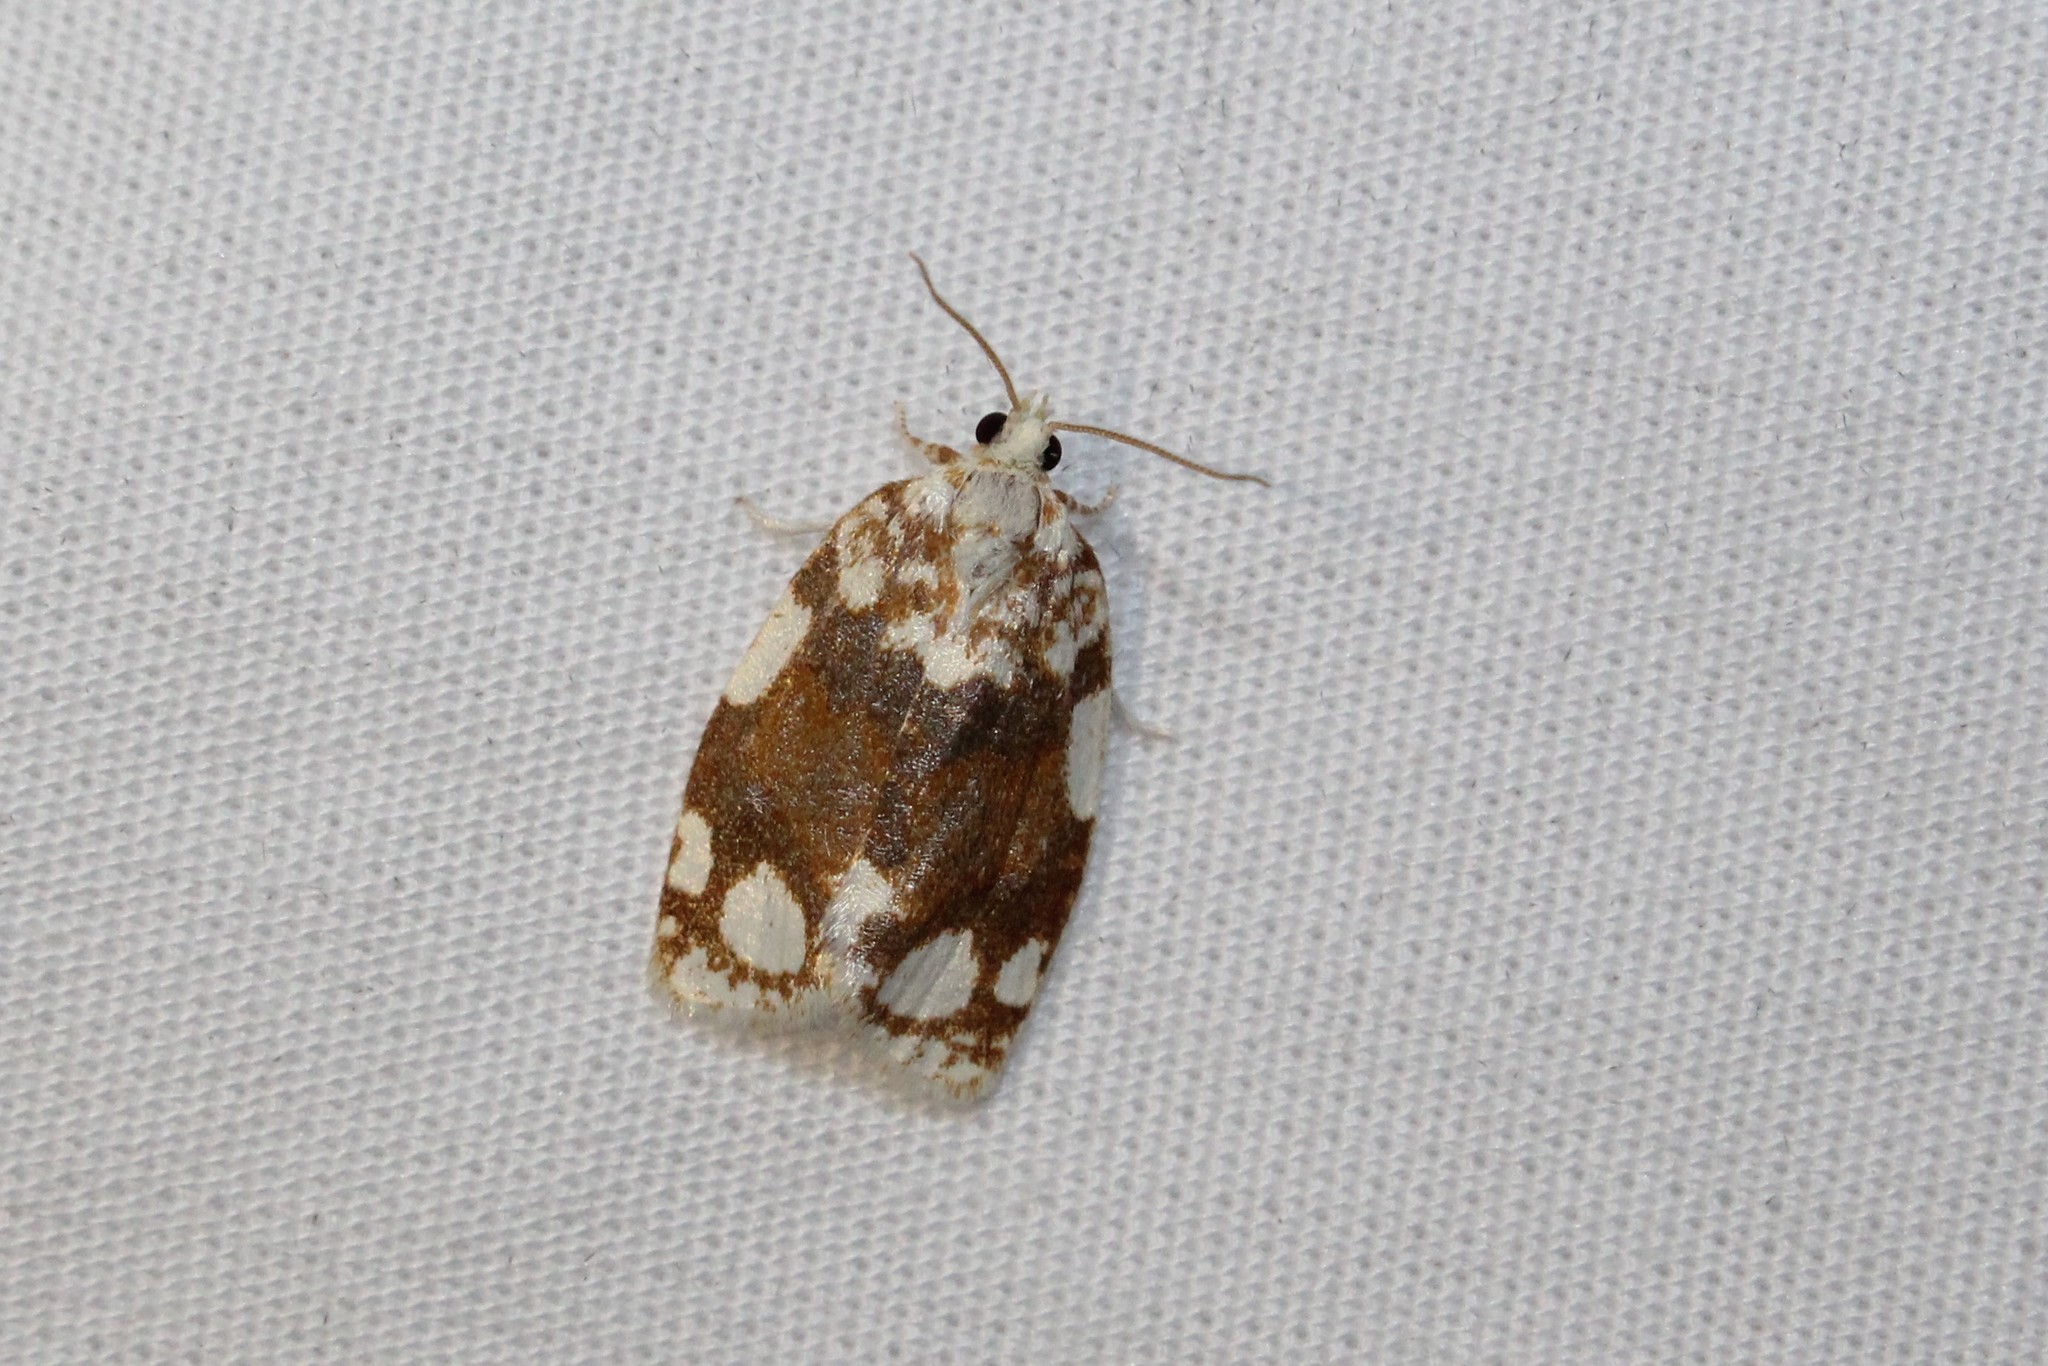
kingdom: Animalia
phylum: Arthropoda
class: Insecta
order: Lepidoptera
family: Tortricidae
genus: Argyrotaenia
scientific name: Argyrotaenia alisellana
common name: White-spotted leafroller moth
